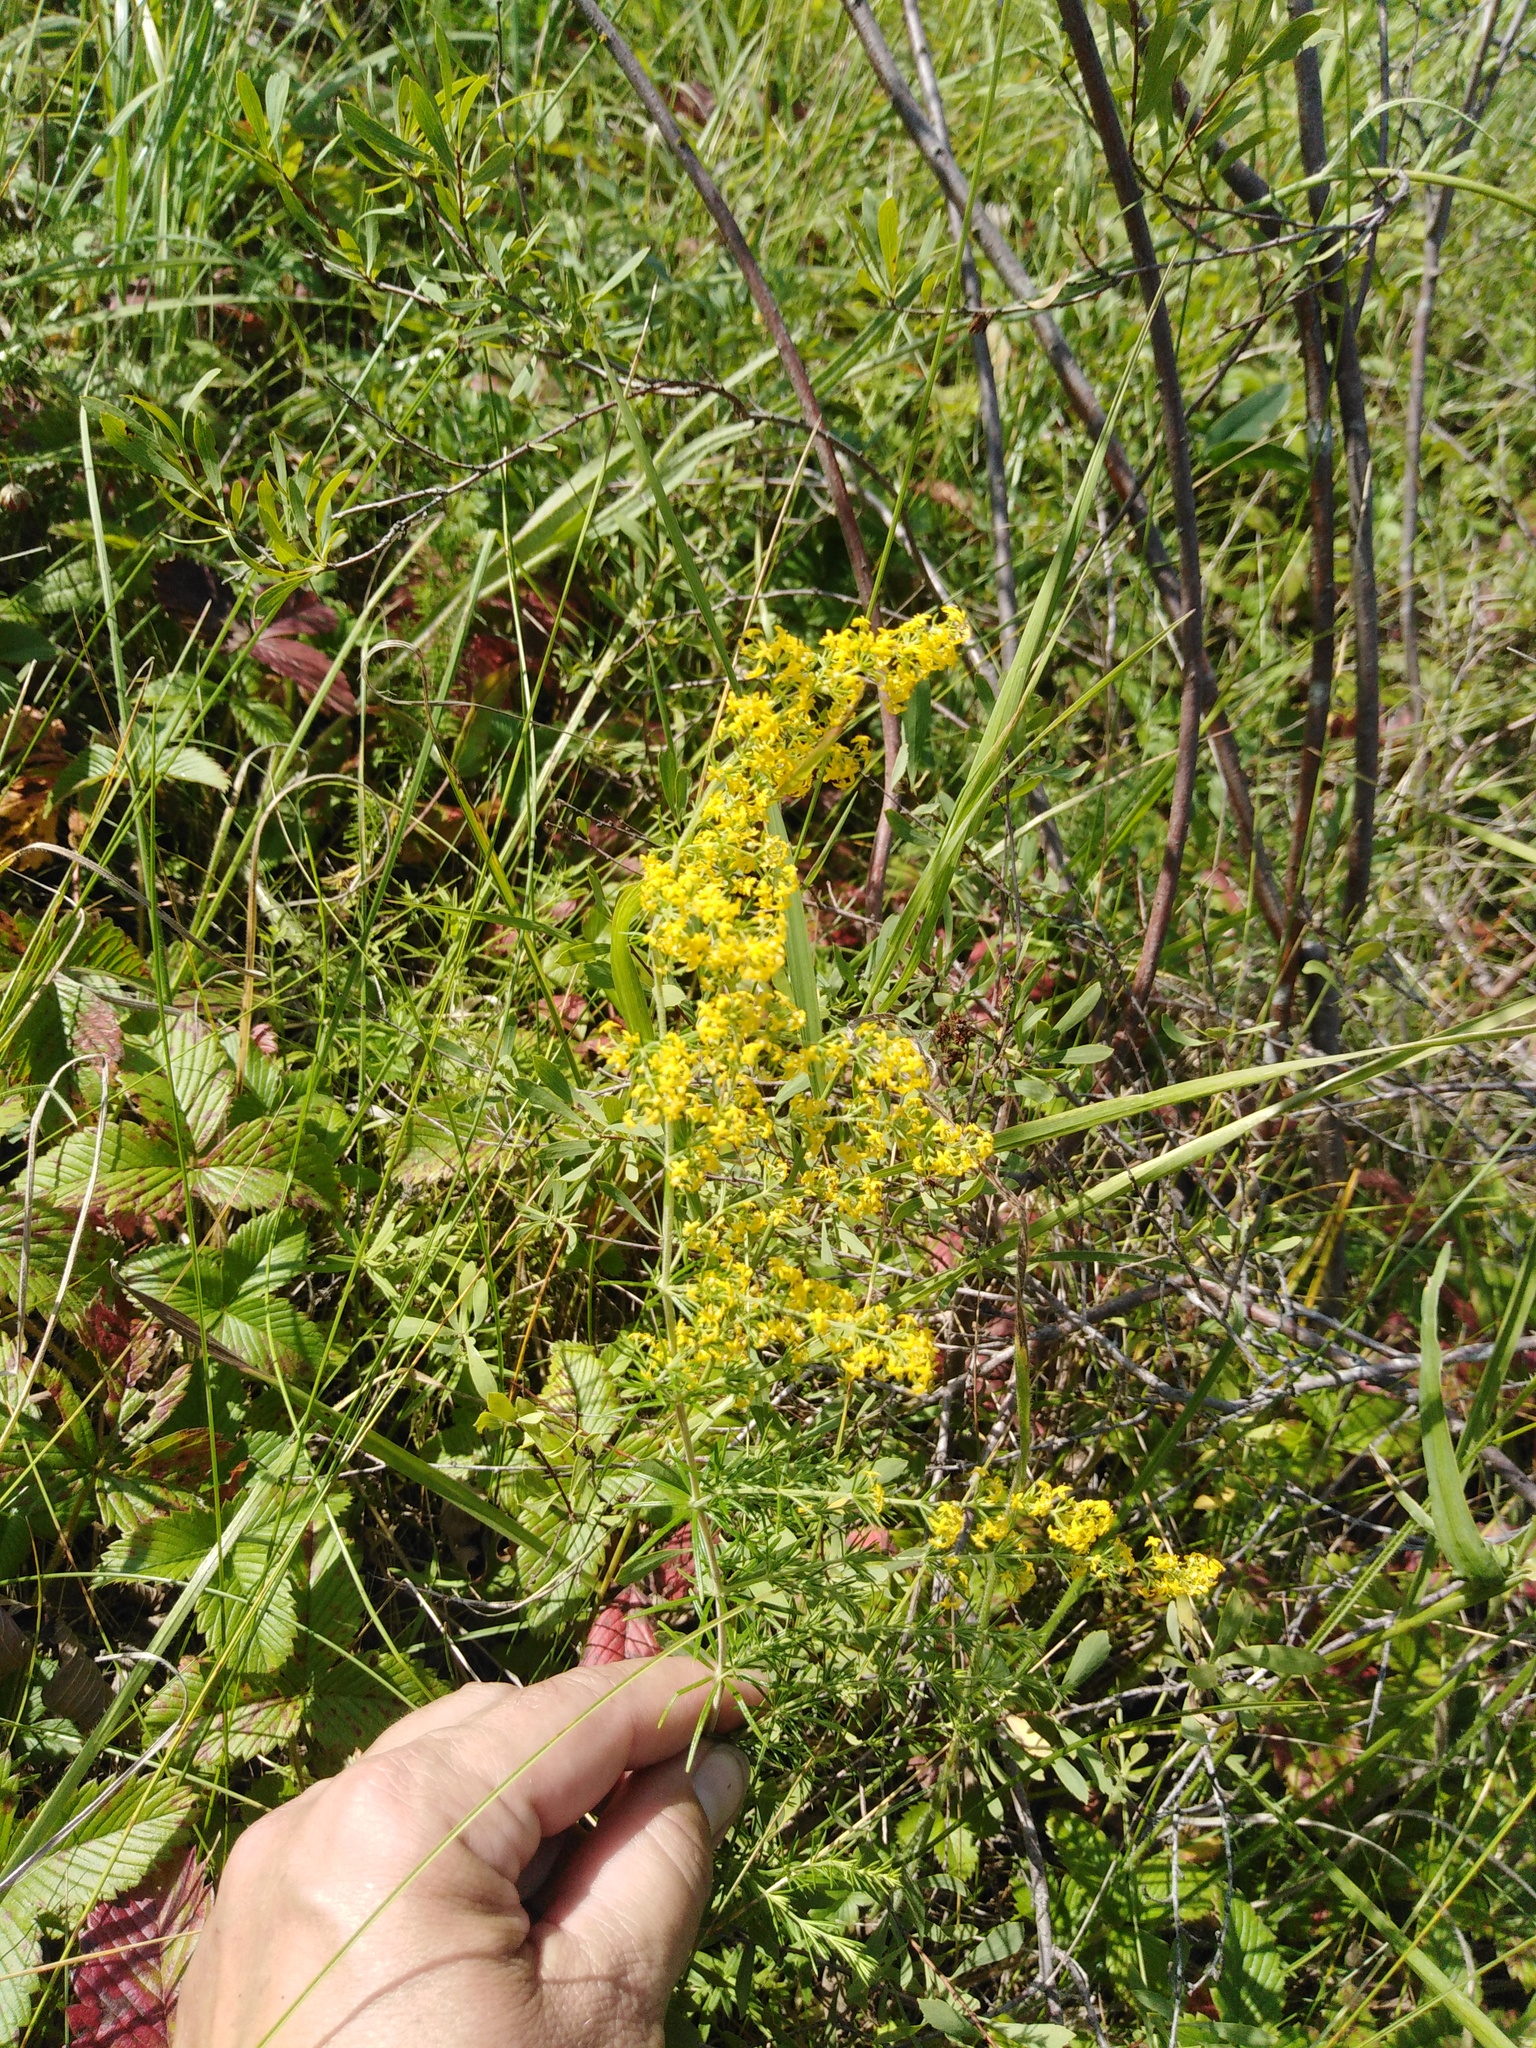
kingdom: Plantae
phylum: Tracheophyta
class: Magnoliopsida
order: Gentianales
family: Rubiaceae
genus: Galium
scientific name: Galium verum
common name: Lady's bedstraw
